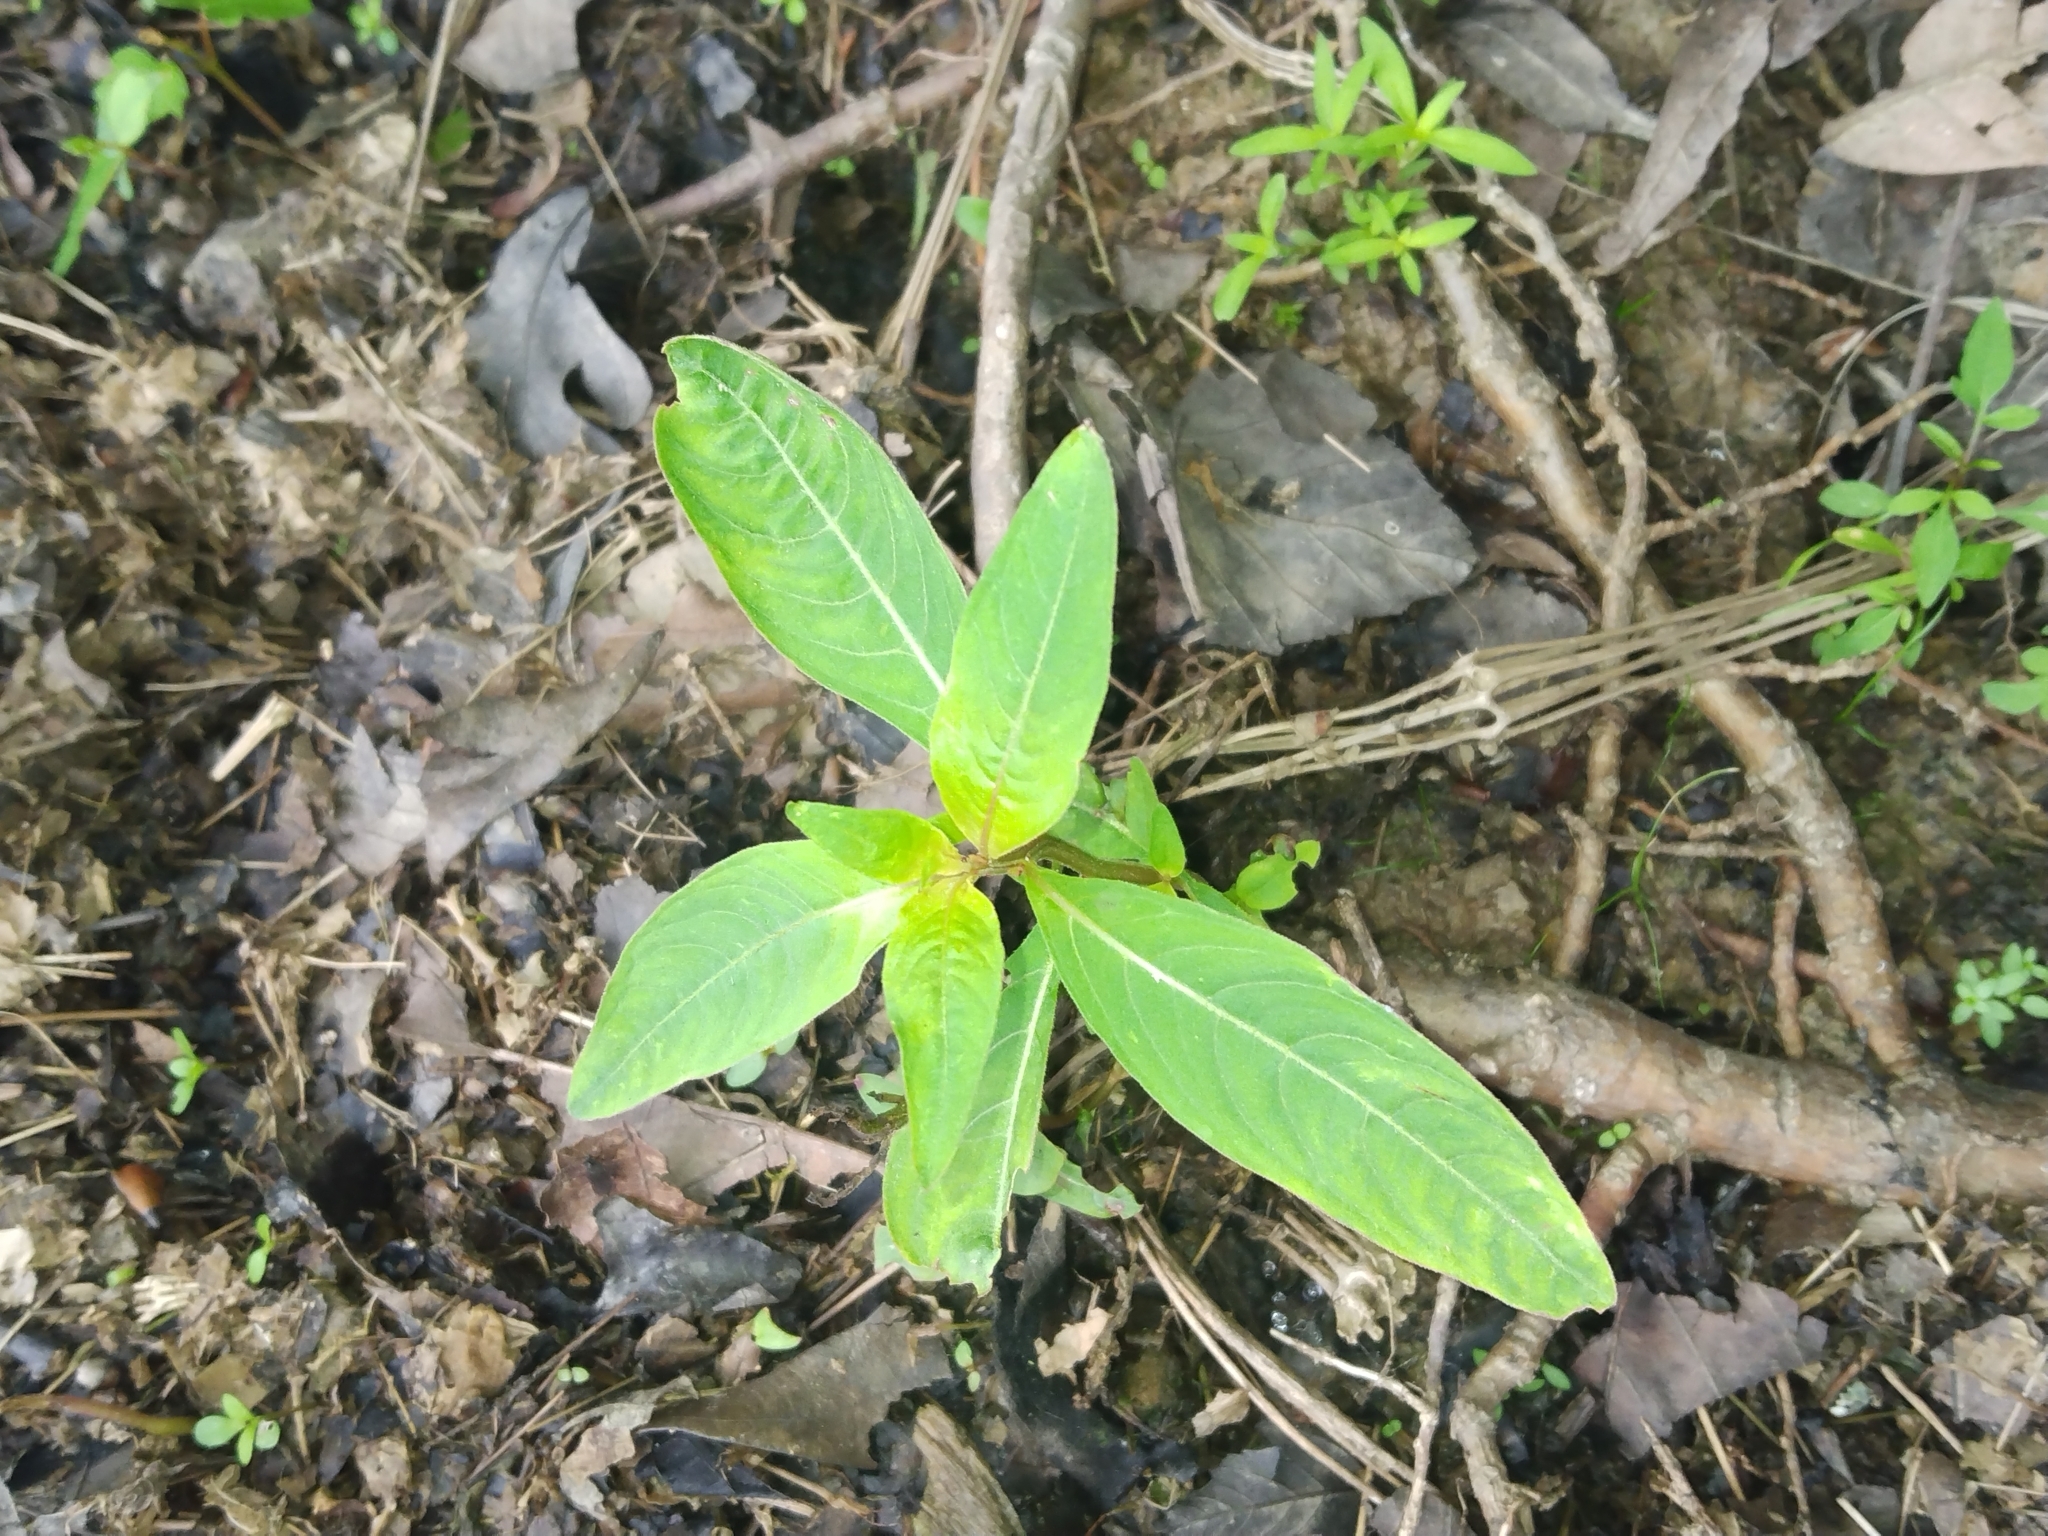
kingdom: Plantae
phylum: Tracheophyta
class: Magnoliopsida
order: Myrtales
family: Onagraceae
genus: Ludwigia
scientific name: Ludwigia alternifolia
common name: Rattlebox
